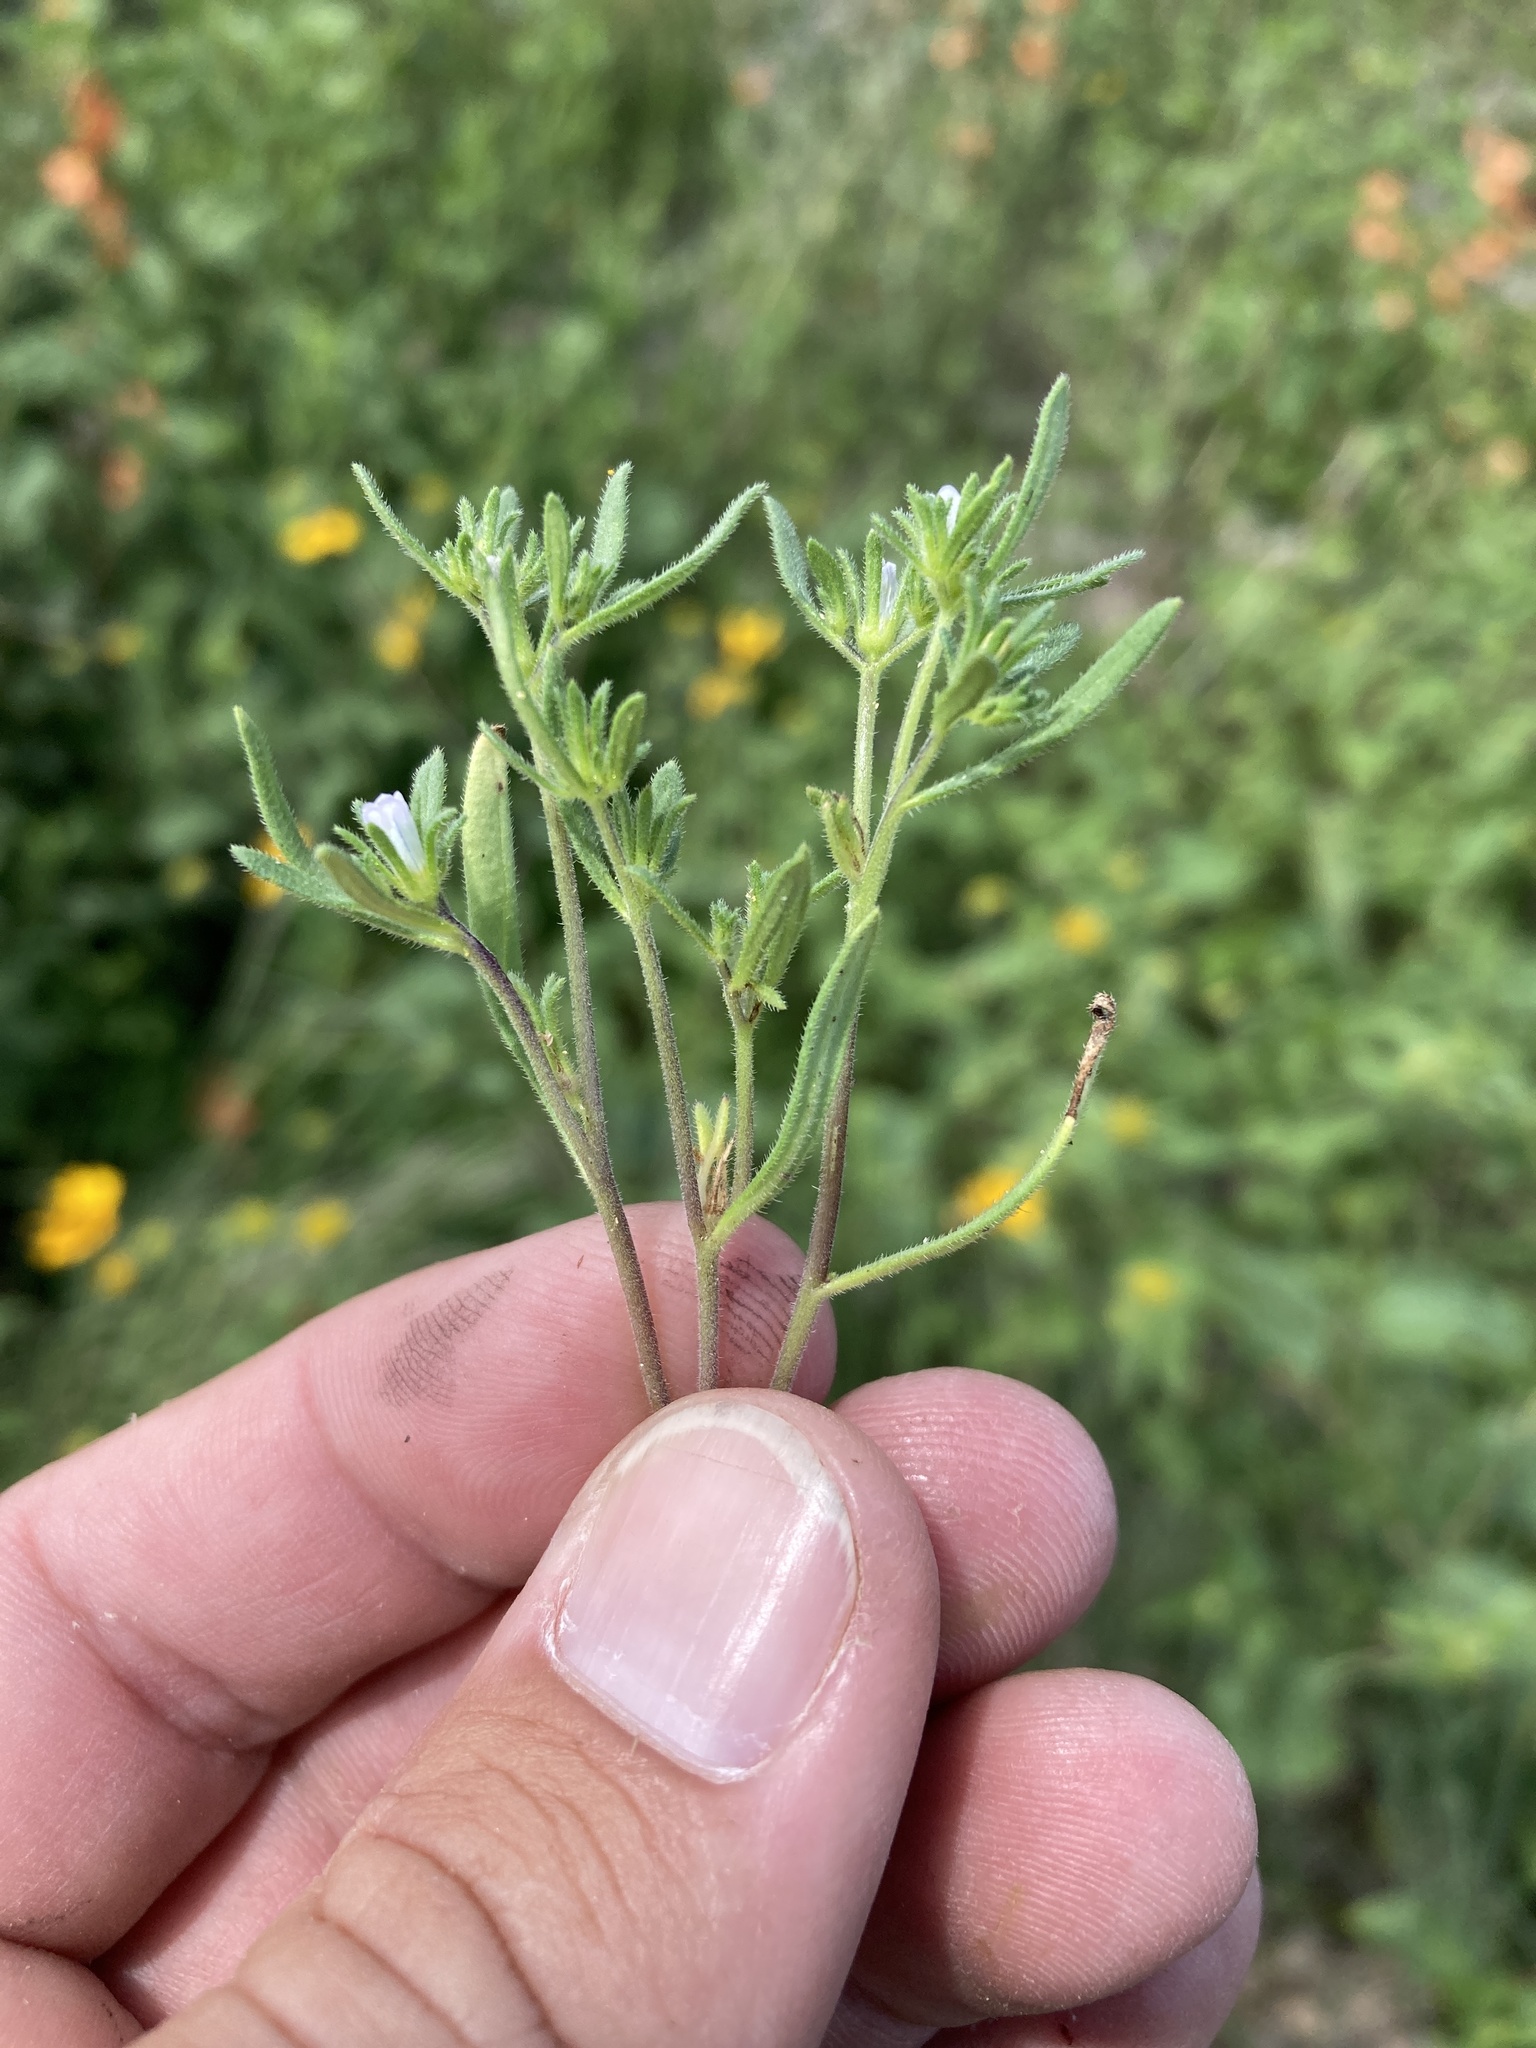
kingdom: Plantae
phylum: Tracheophyta
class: Magnoliopsida
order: Boraginales
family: Namaceae
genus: Nama
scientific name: Nama dichotoma
